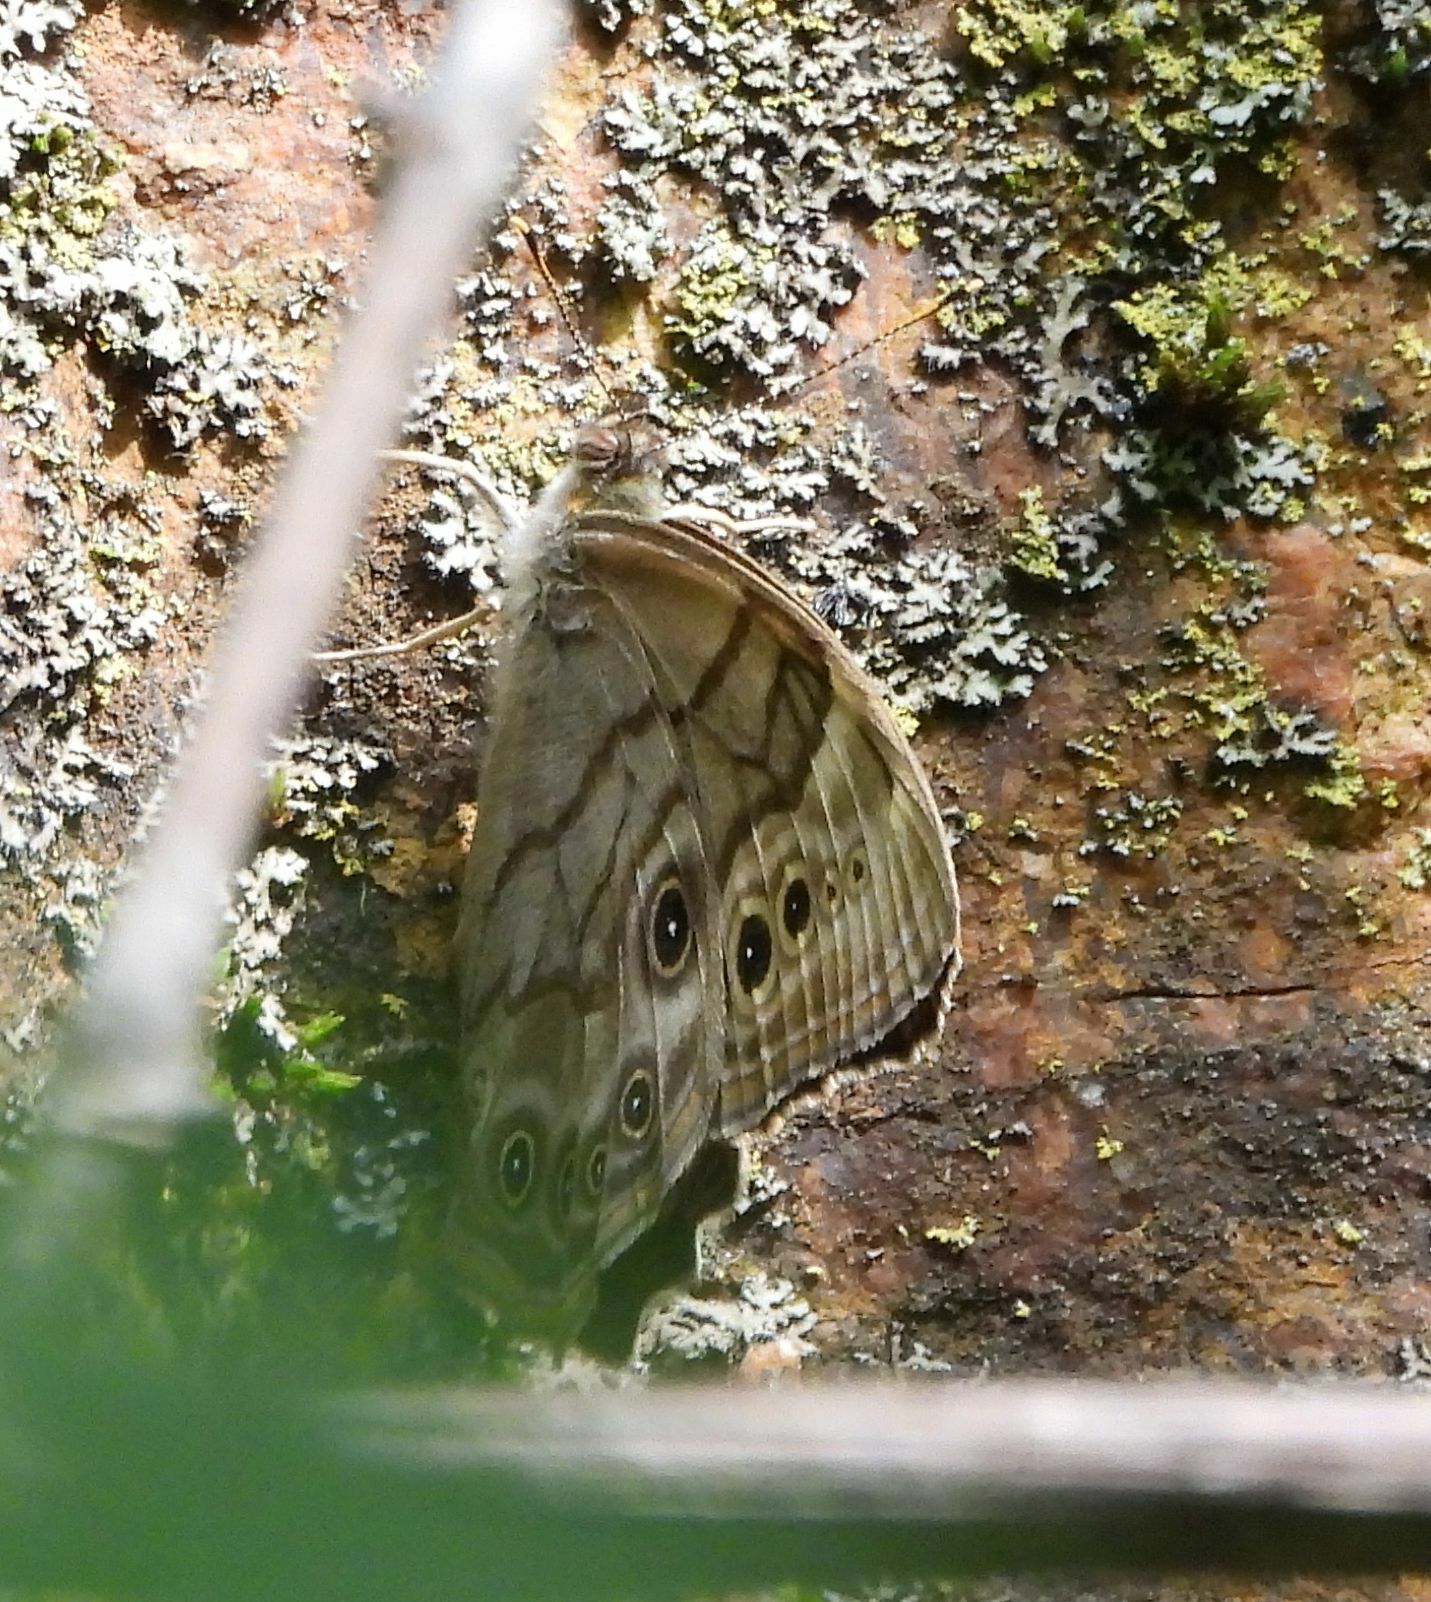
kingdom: Animalia
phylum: Arthropoda
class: Insecta
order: Lepidoptera
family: Nymphalidae
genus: Lethe
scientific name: Lethe anthedon
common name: Northern pearly-eye
